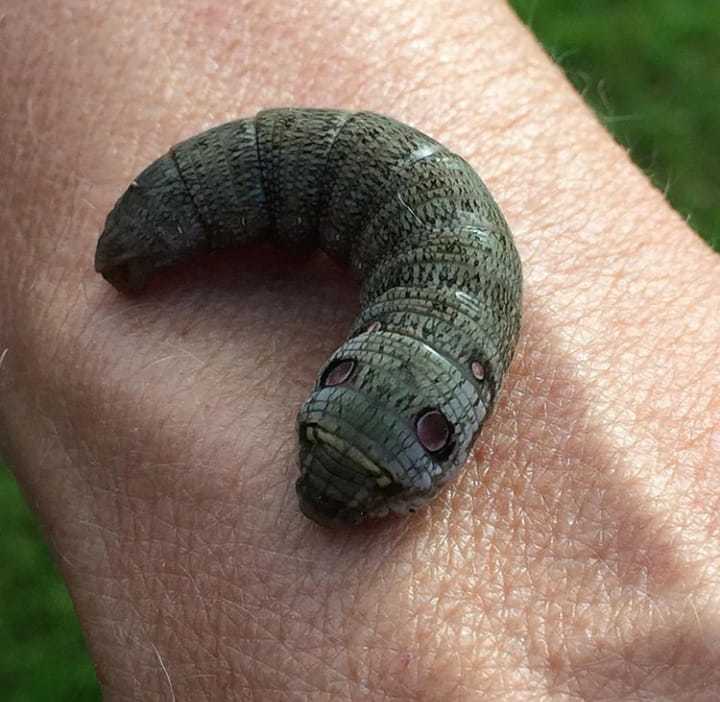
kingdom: Animalia
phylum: Arthropoda
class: Insecta
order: Lepidoptera
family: Sphingidae
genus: Deilephila
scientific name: Deilephila porcellus
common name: Small elephant hawk-moth
